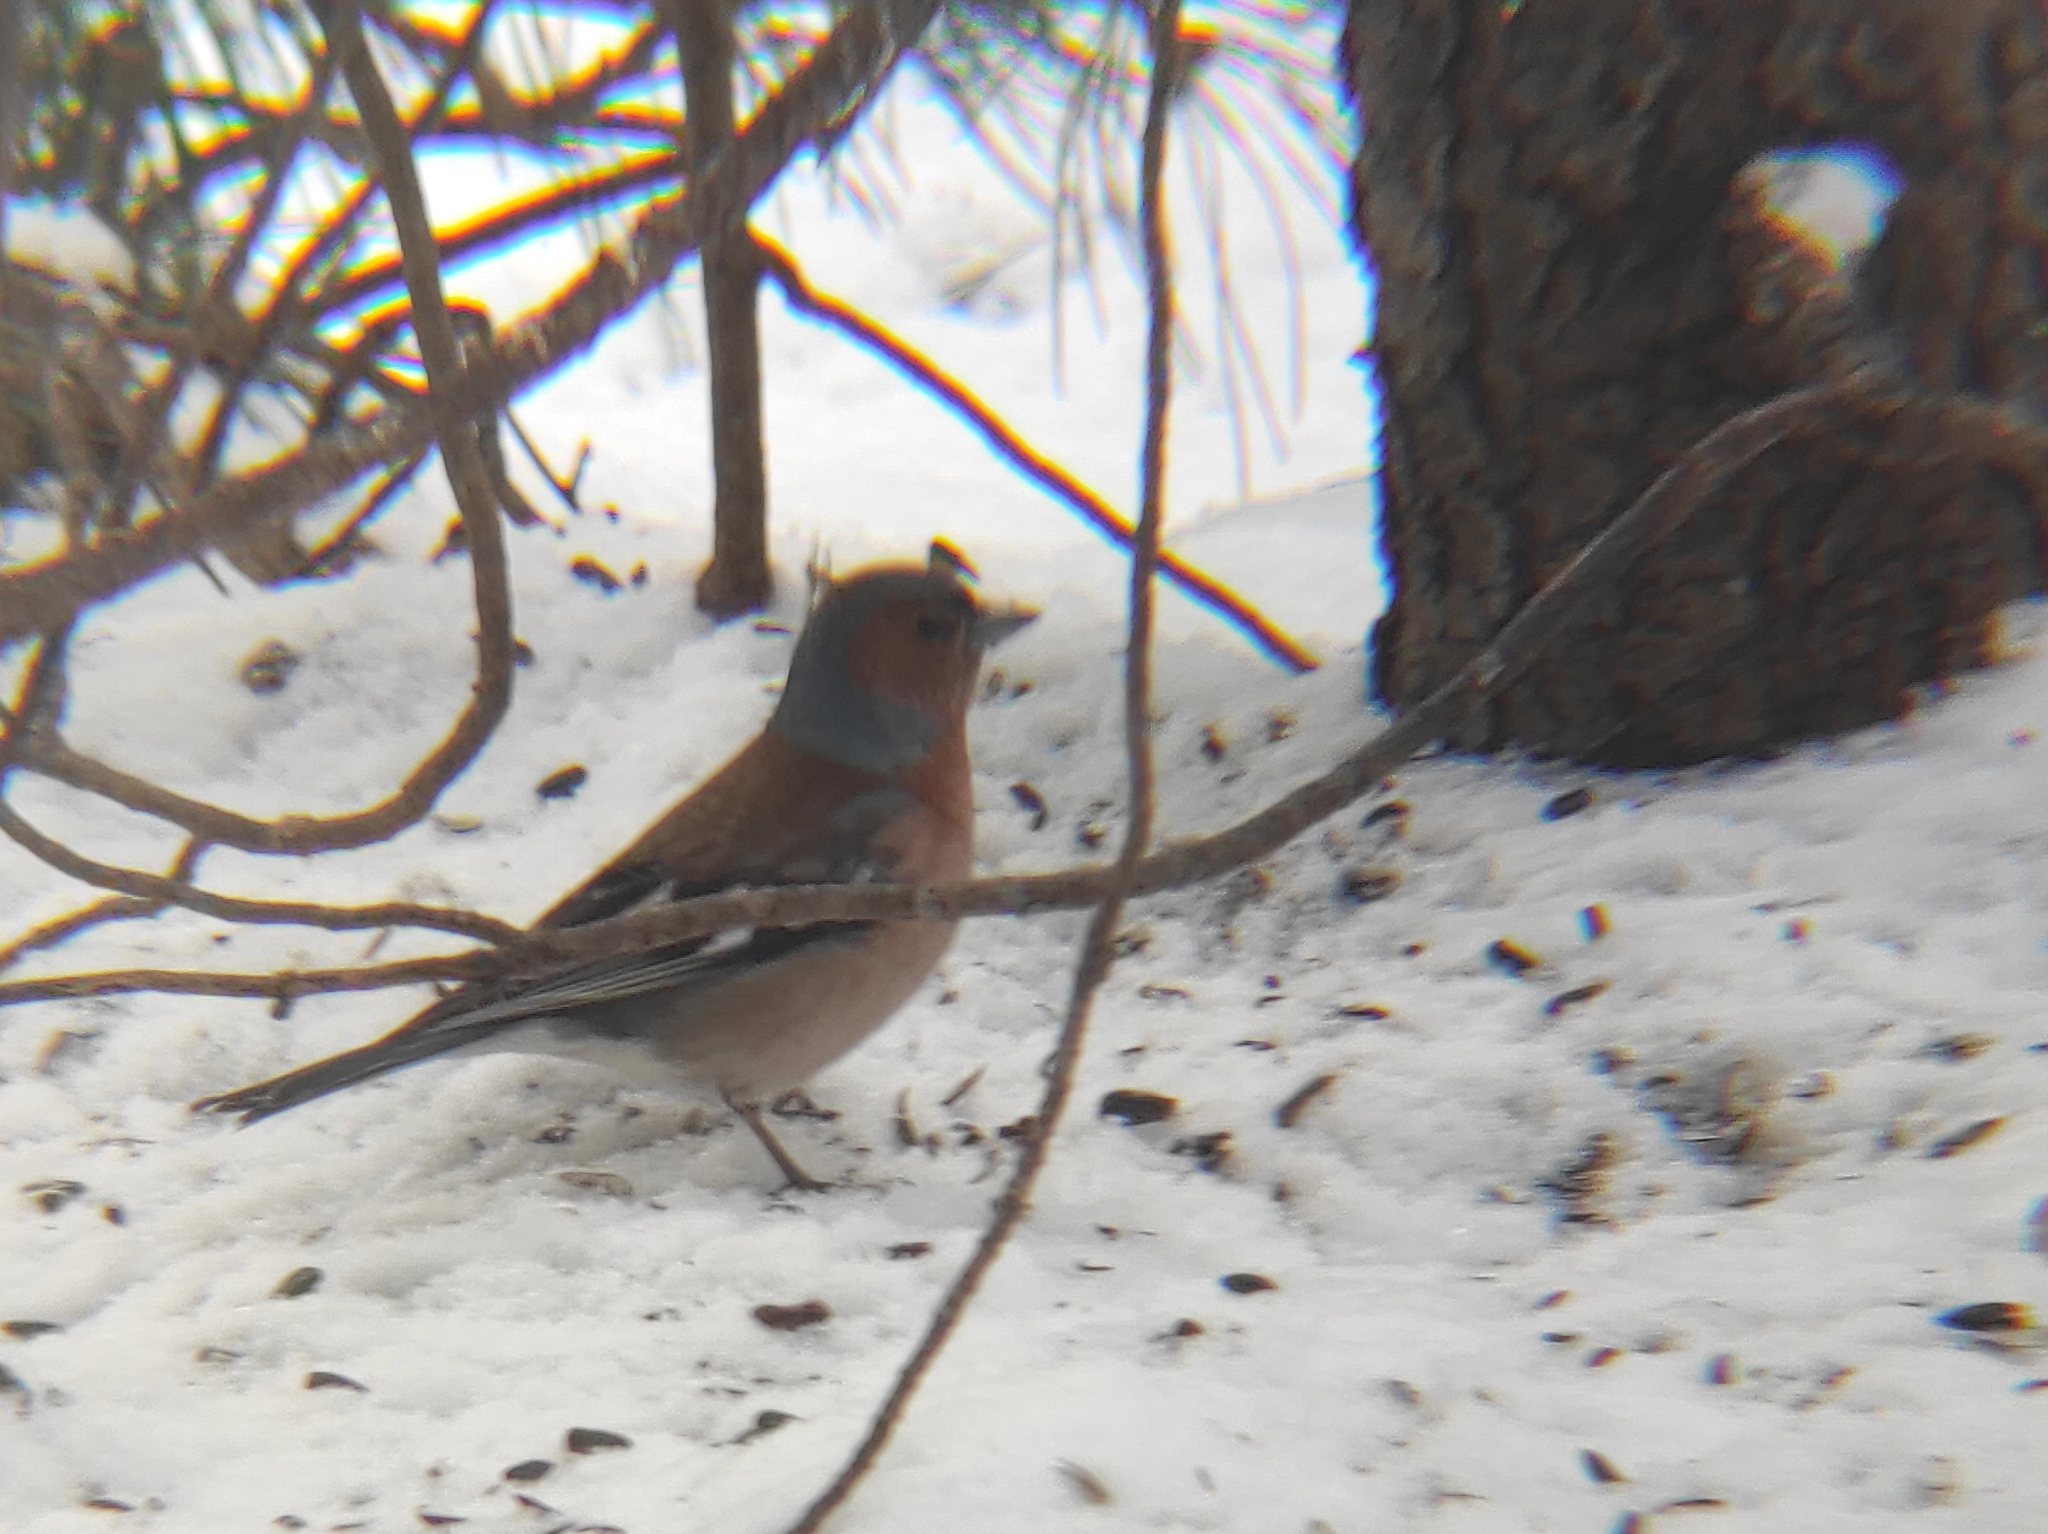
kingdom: Animalia
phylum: Chordata
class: Aves
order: Passeriformes
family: Fringillidae
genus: Fringilla
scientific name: Fringilla coelebs
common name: Common chaffinch
